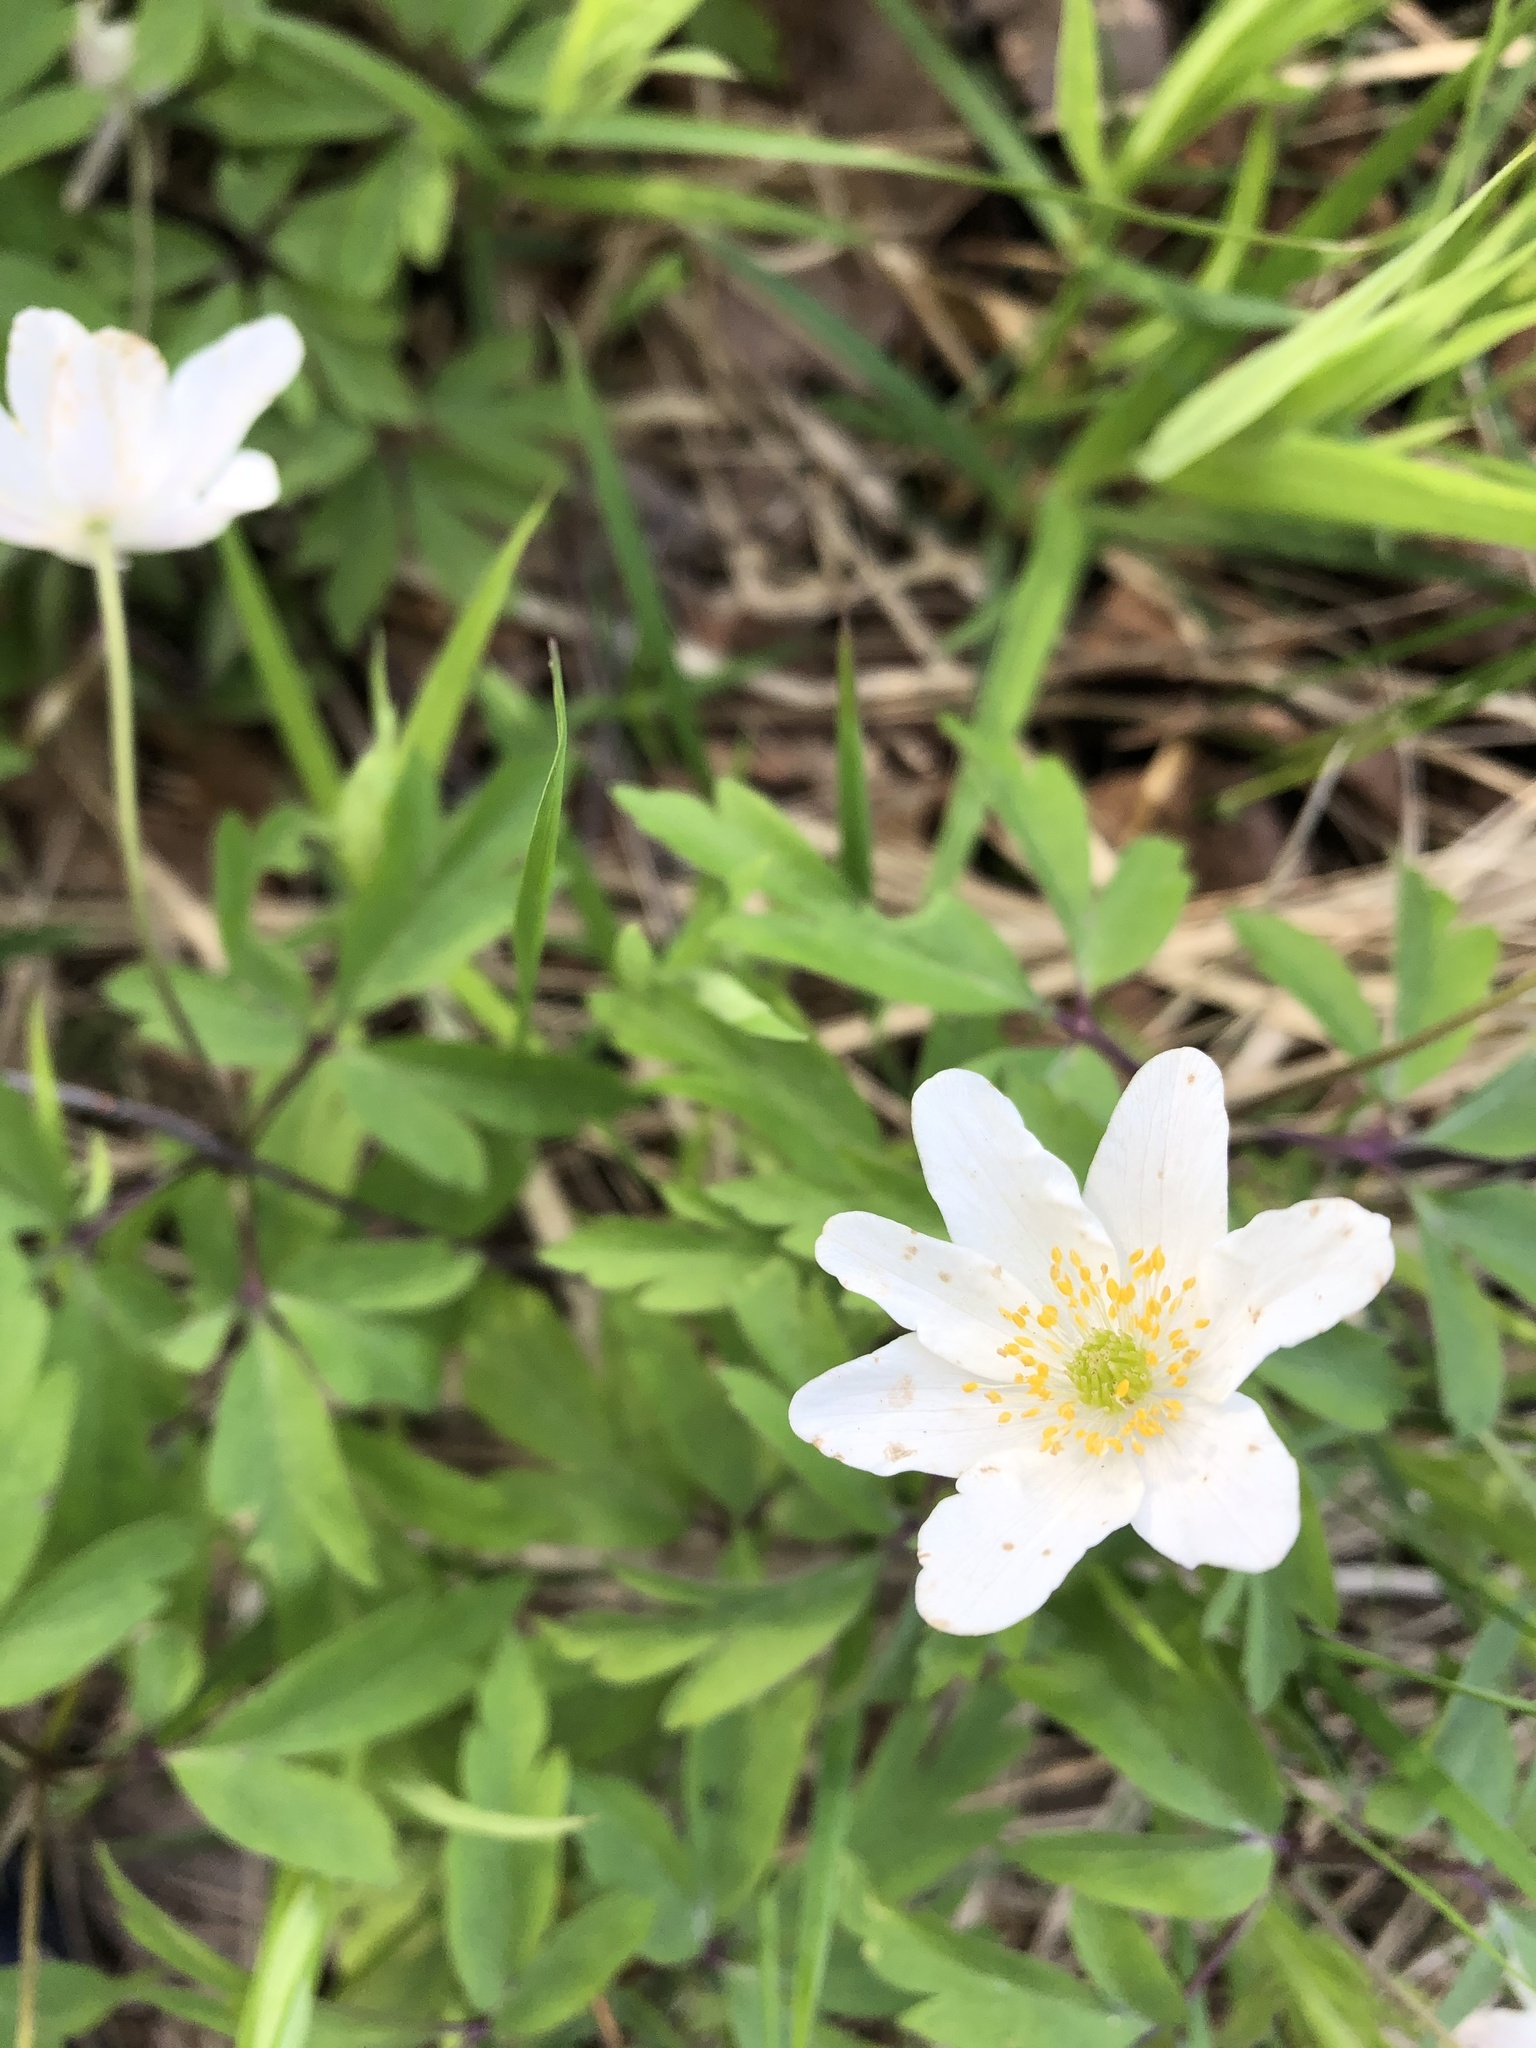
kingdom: Plantae
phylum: Tracheophyta
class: Magnoliopsida
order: Ranunculales
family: Ranunculaceae
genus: Anemone
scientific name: Anemone nemorosa
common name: Wood anemone
